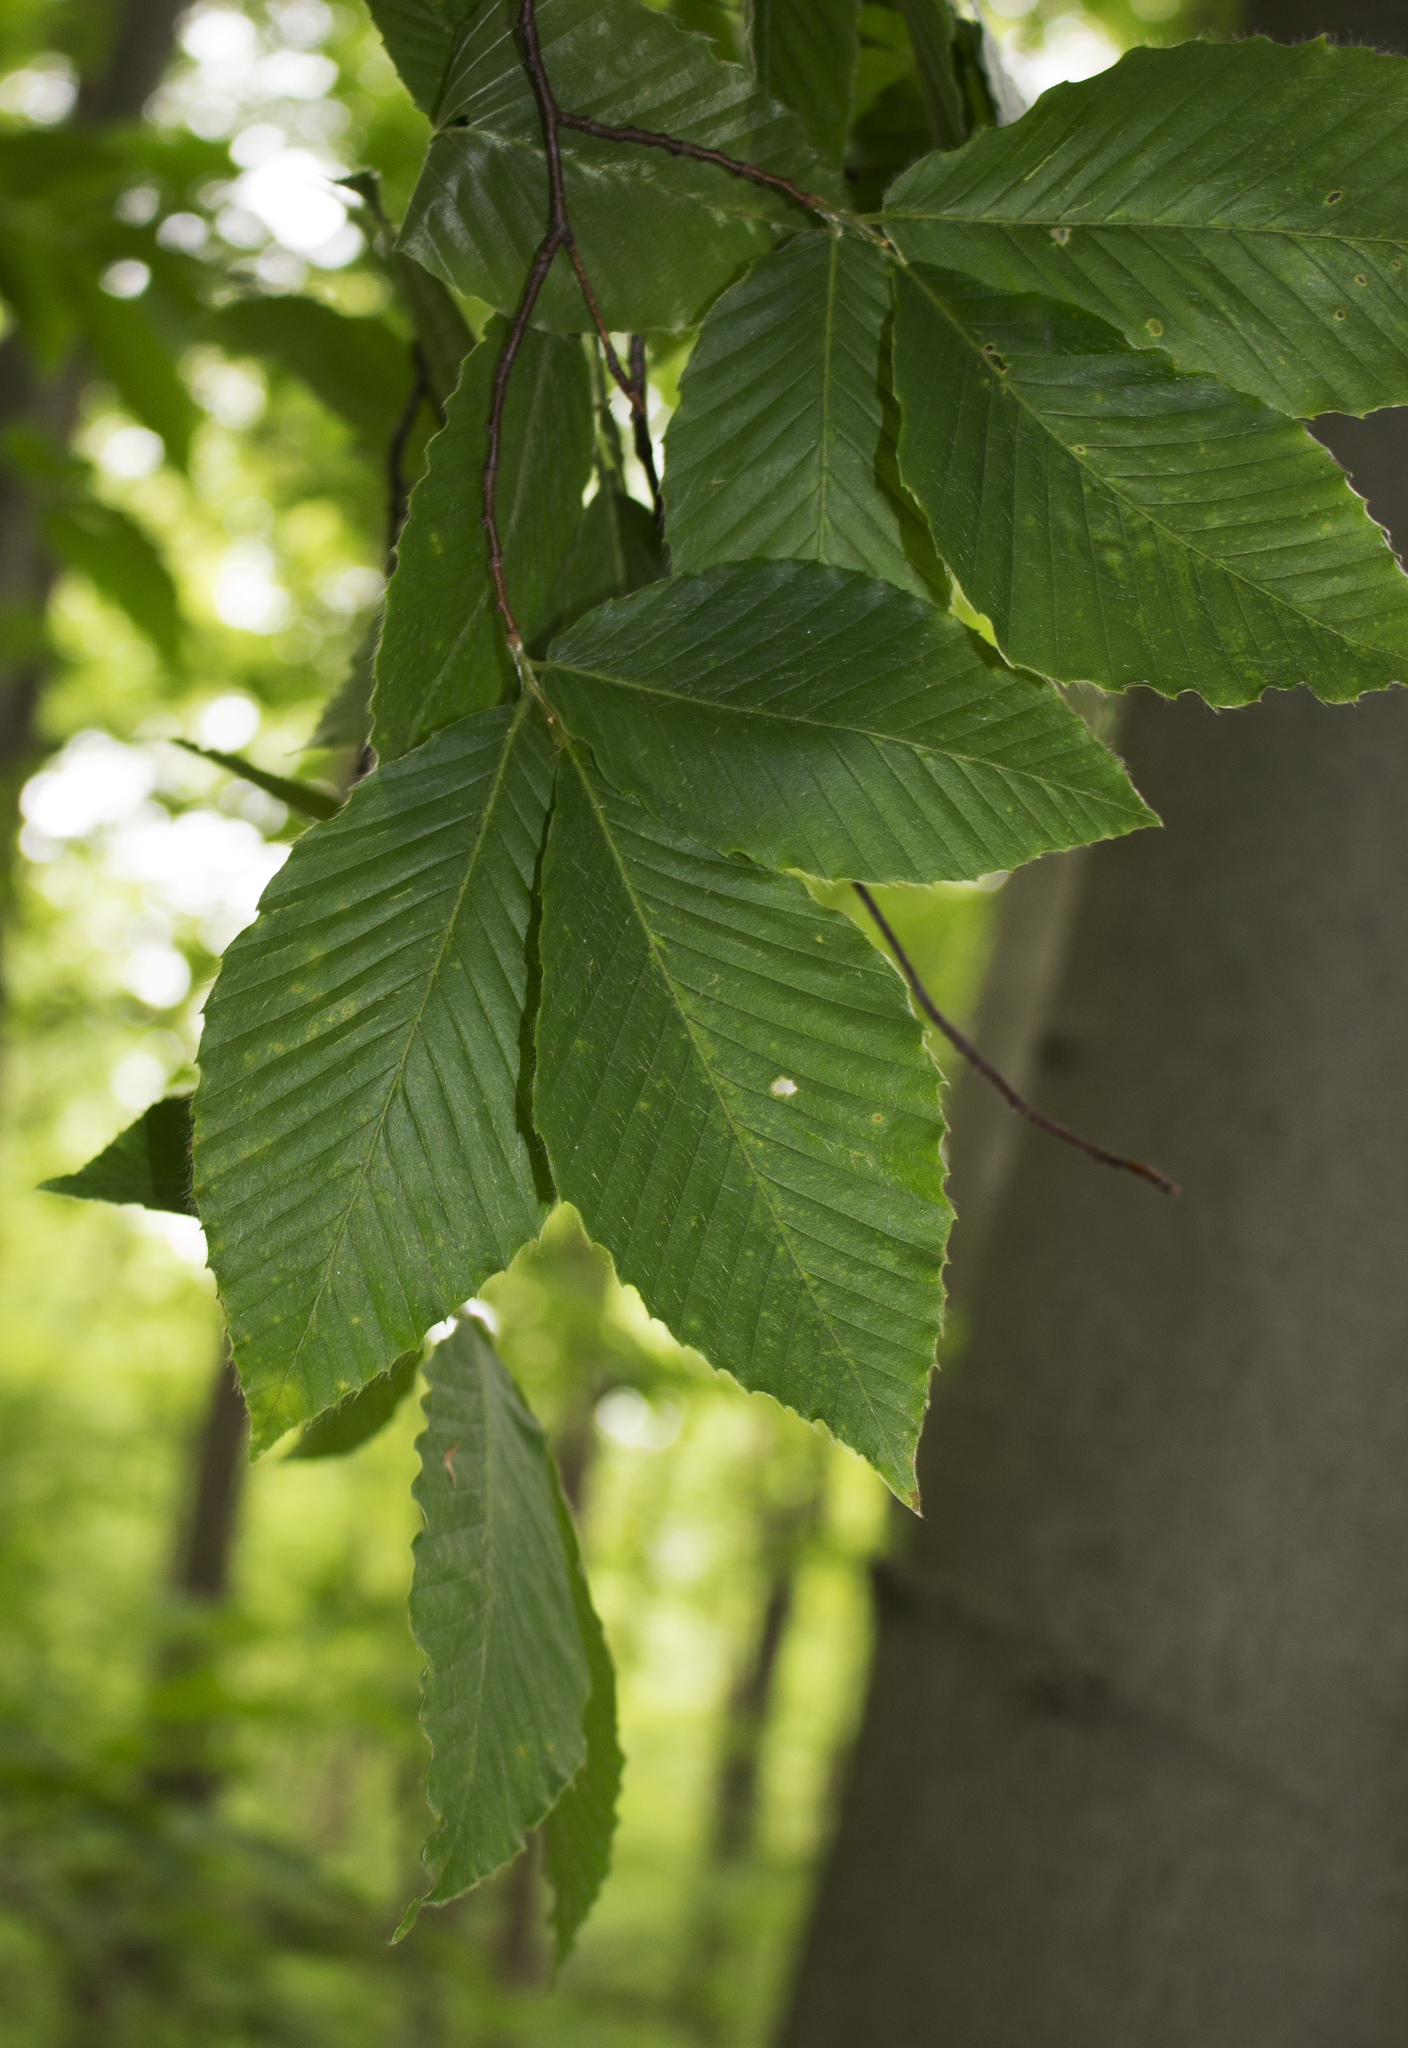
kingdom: Plantae
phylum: Tracheophyta
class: Magnoliopsida
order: Fagales
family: Fagaceae
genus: Fagus
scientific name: Fagus grandifolia
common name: American beech
